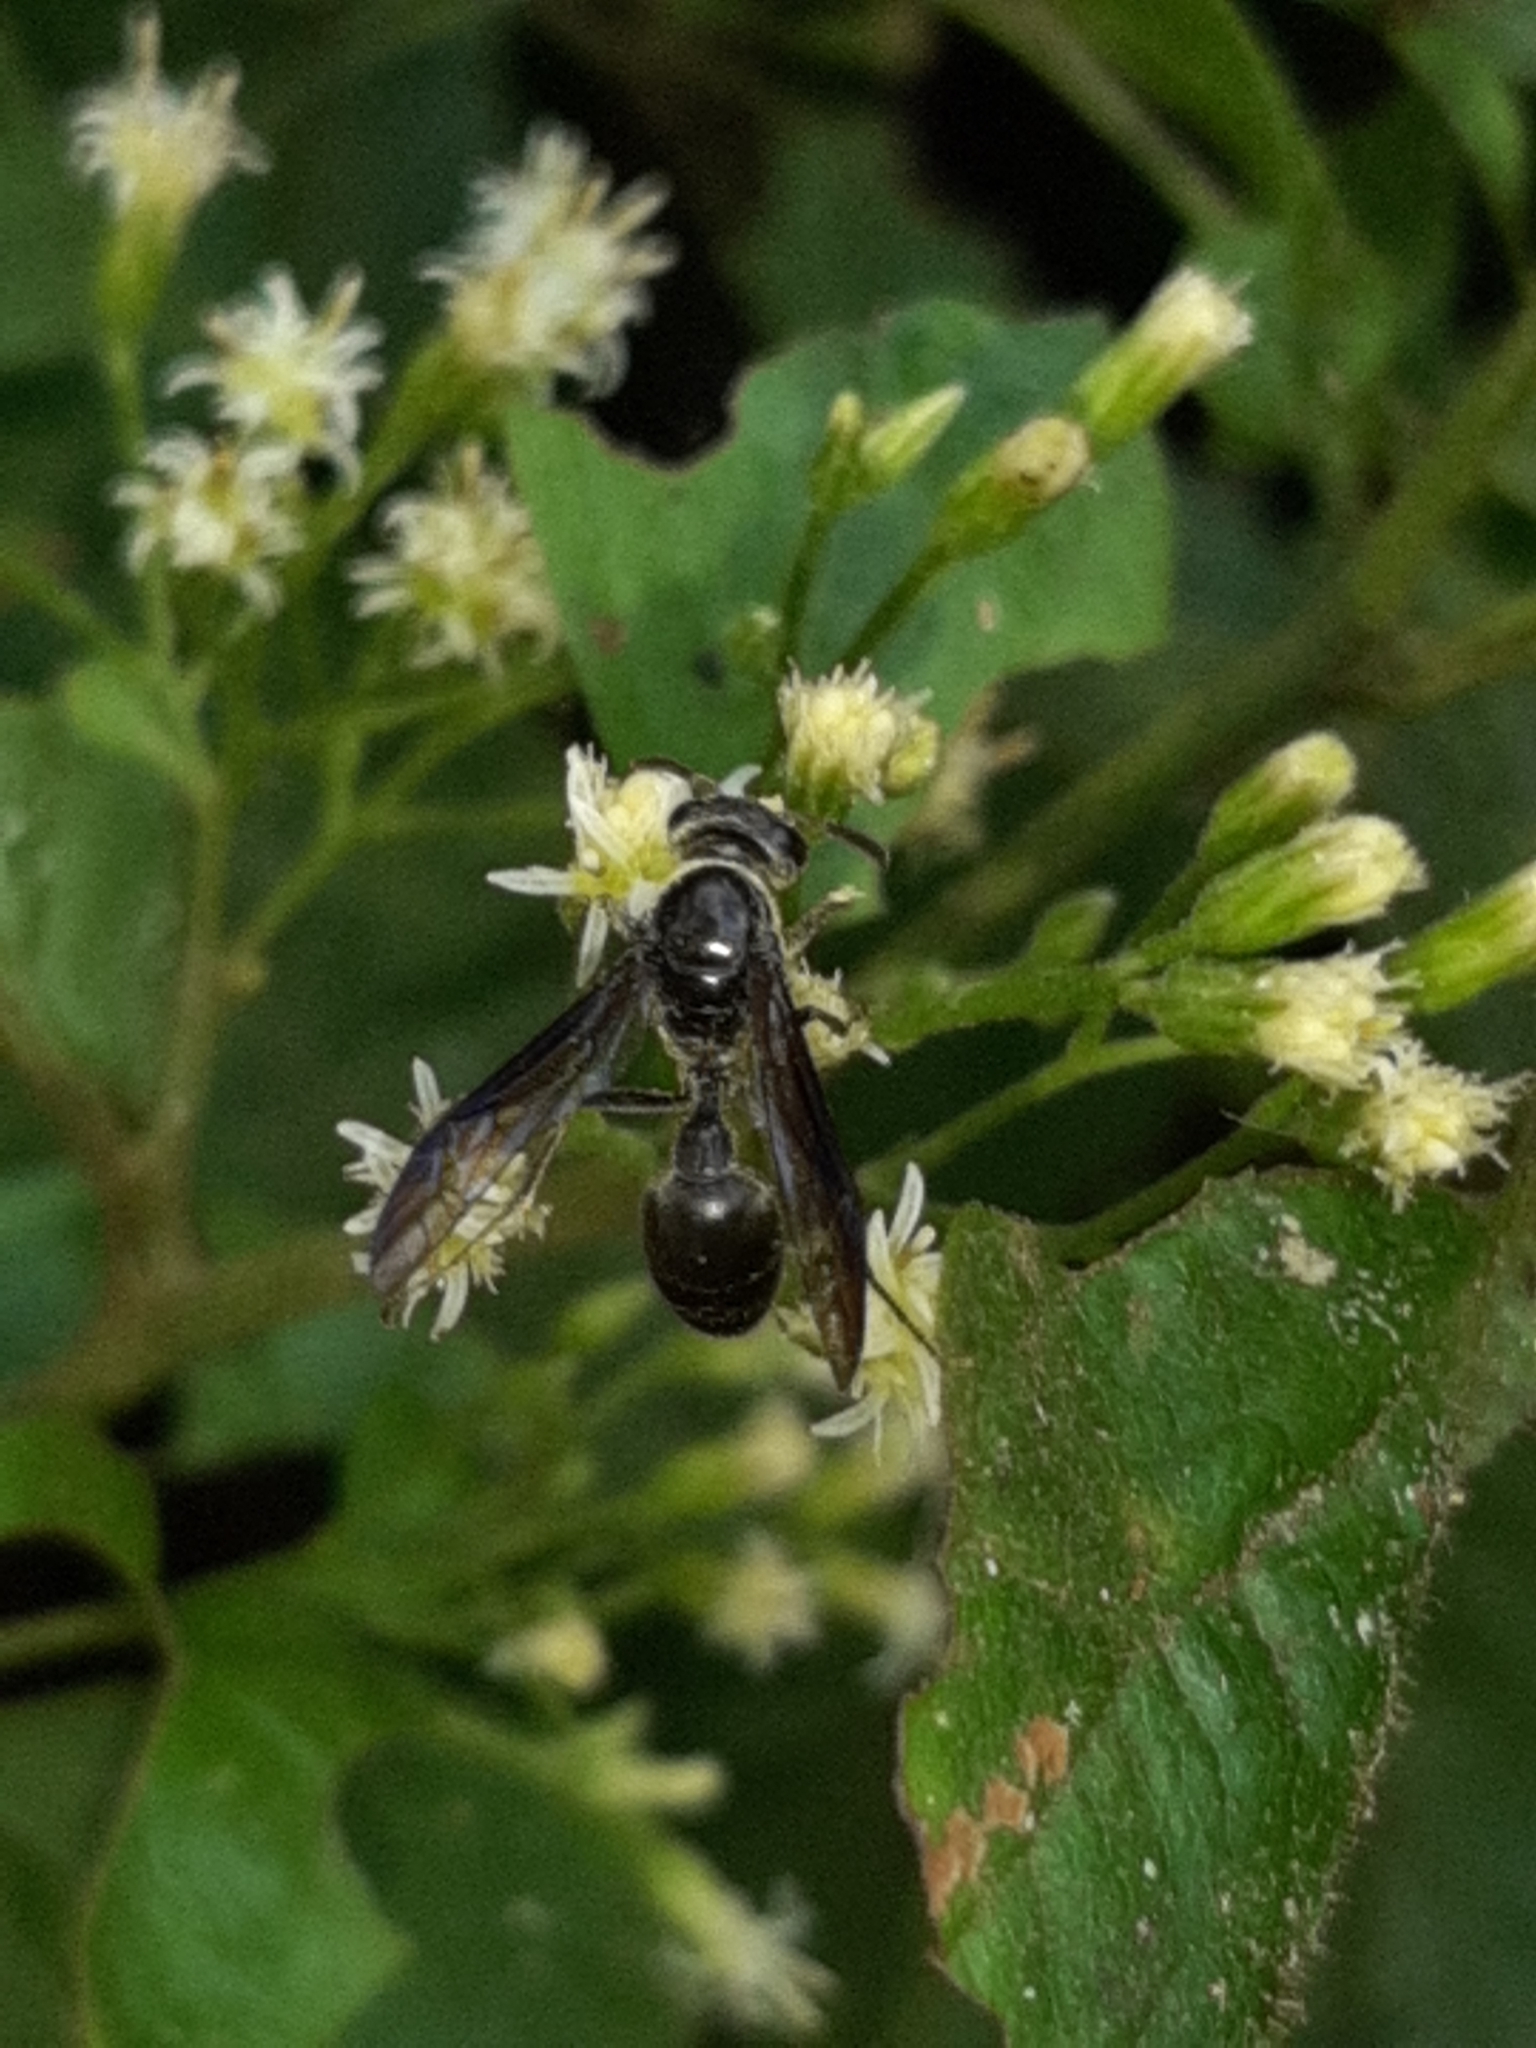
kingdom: Animalia
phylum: Arthropoda
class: Insecta
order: Hymenoptera
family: Eumenidae
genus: Polybia
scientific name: Polybia simillima
